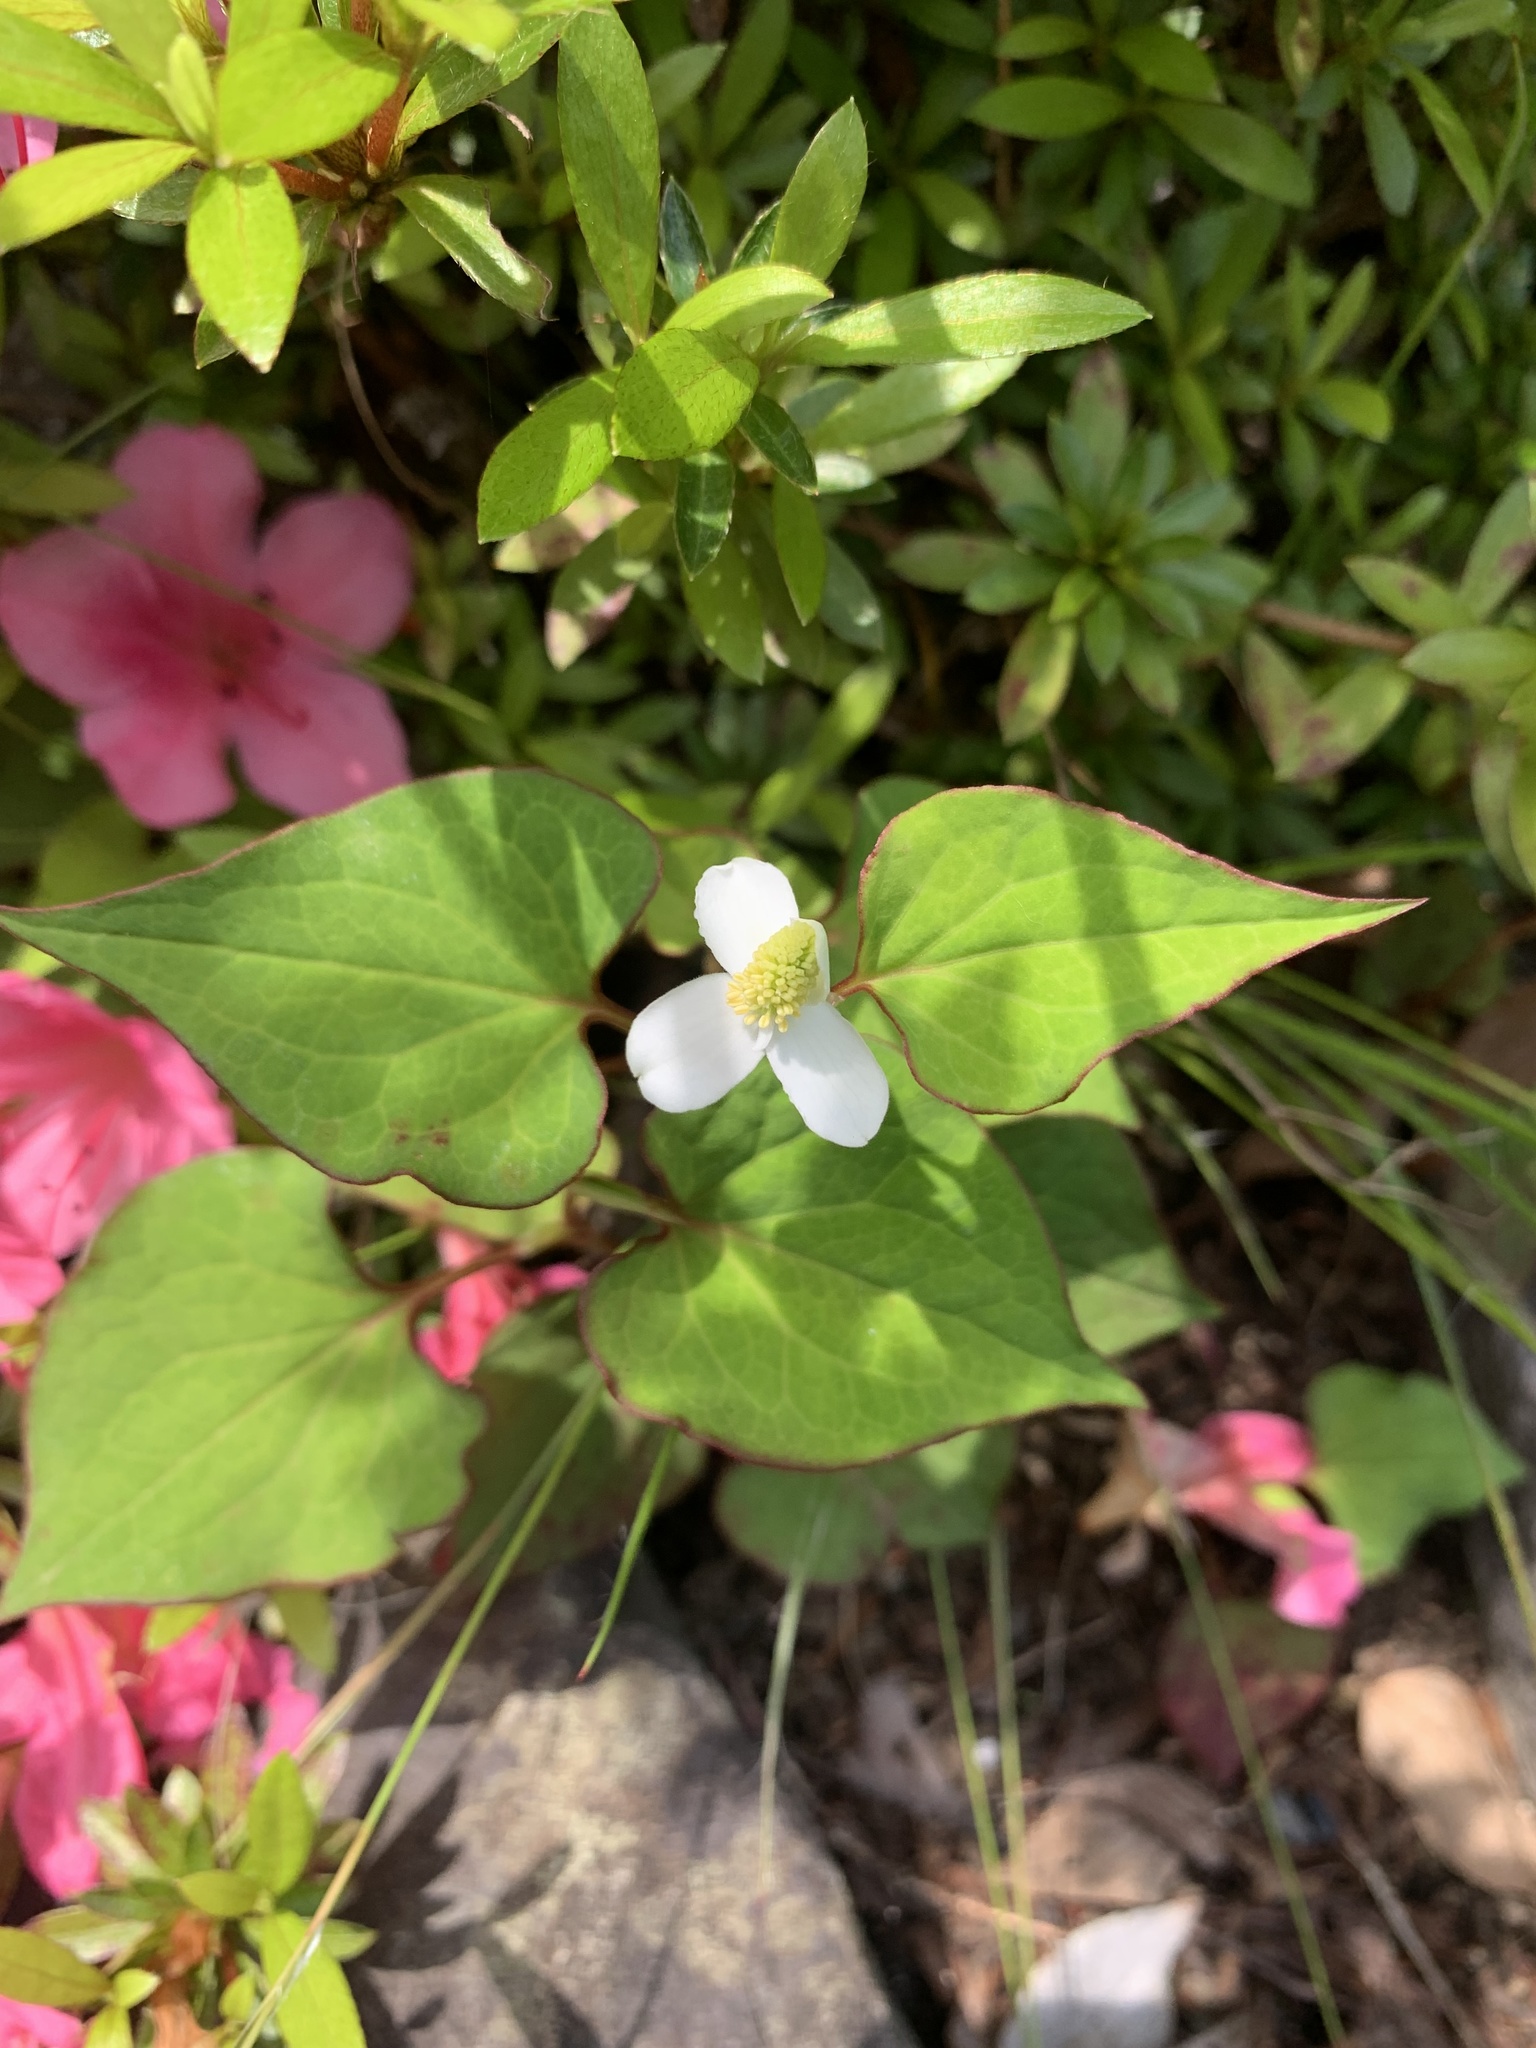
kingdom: Plantae
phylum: Tracheophyta
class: Magnoliopsida
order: Piperales
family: Saururaceae
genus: Houttuynia
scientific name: Houttuynia cordata
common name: Chameleon
